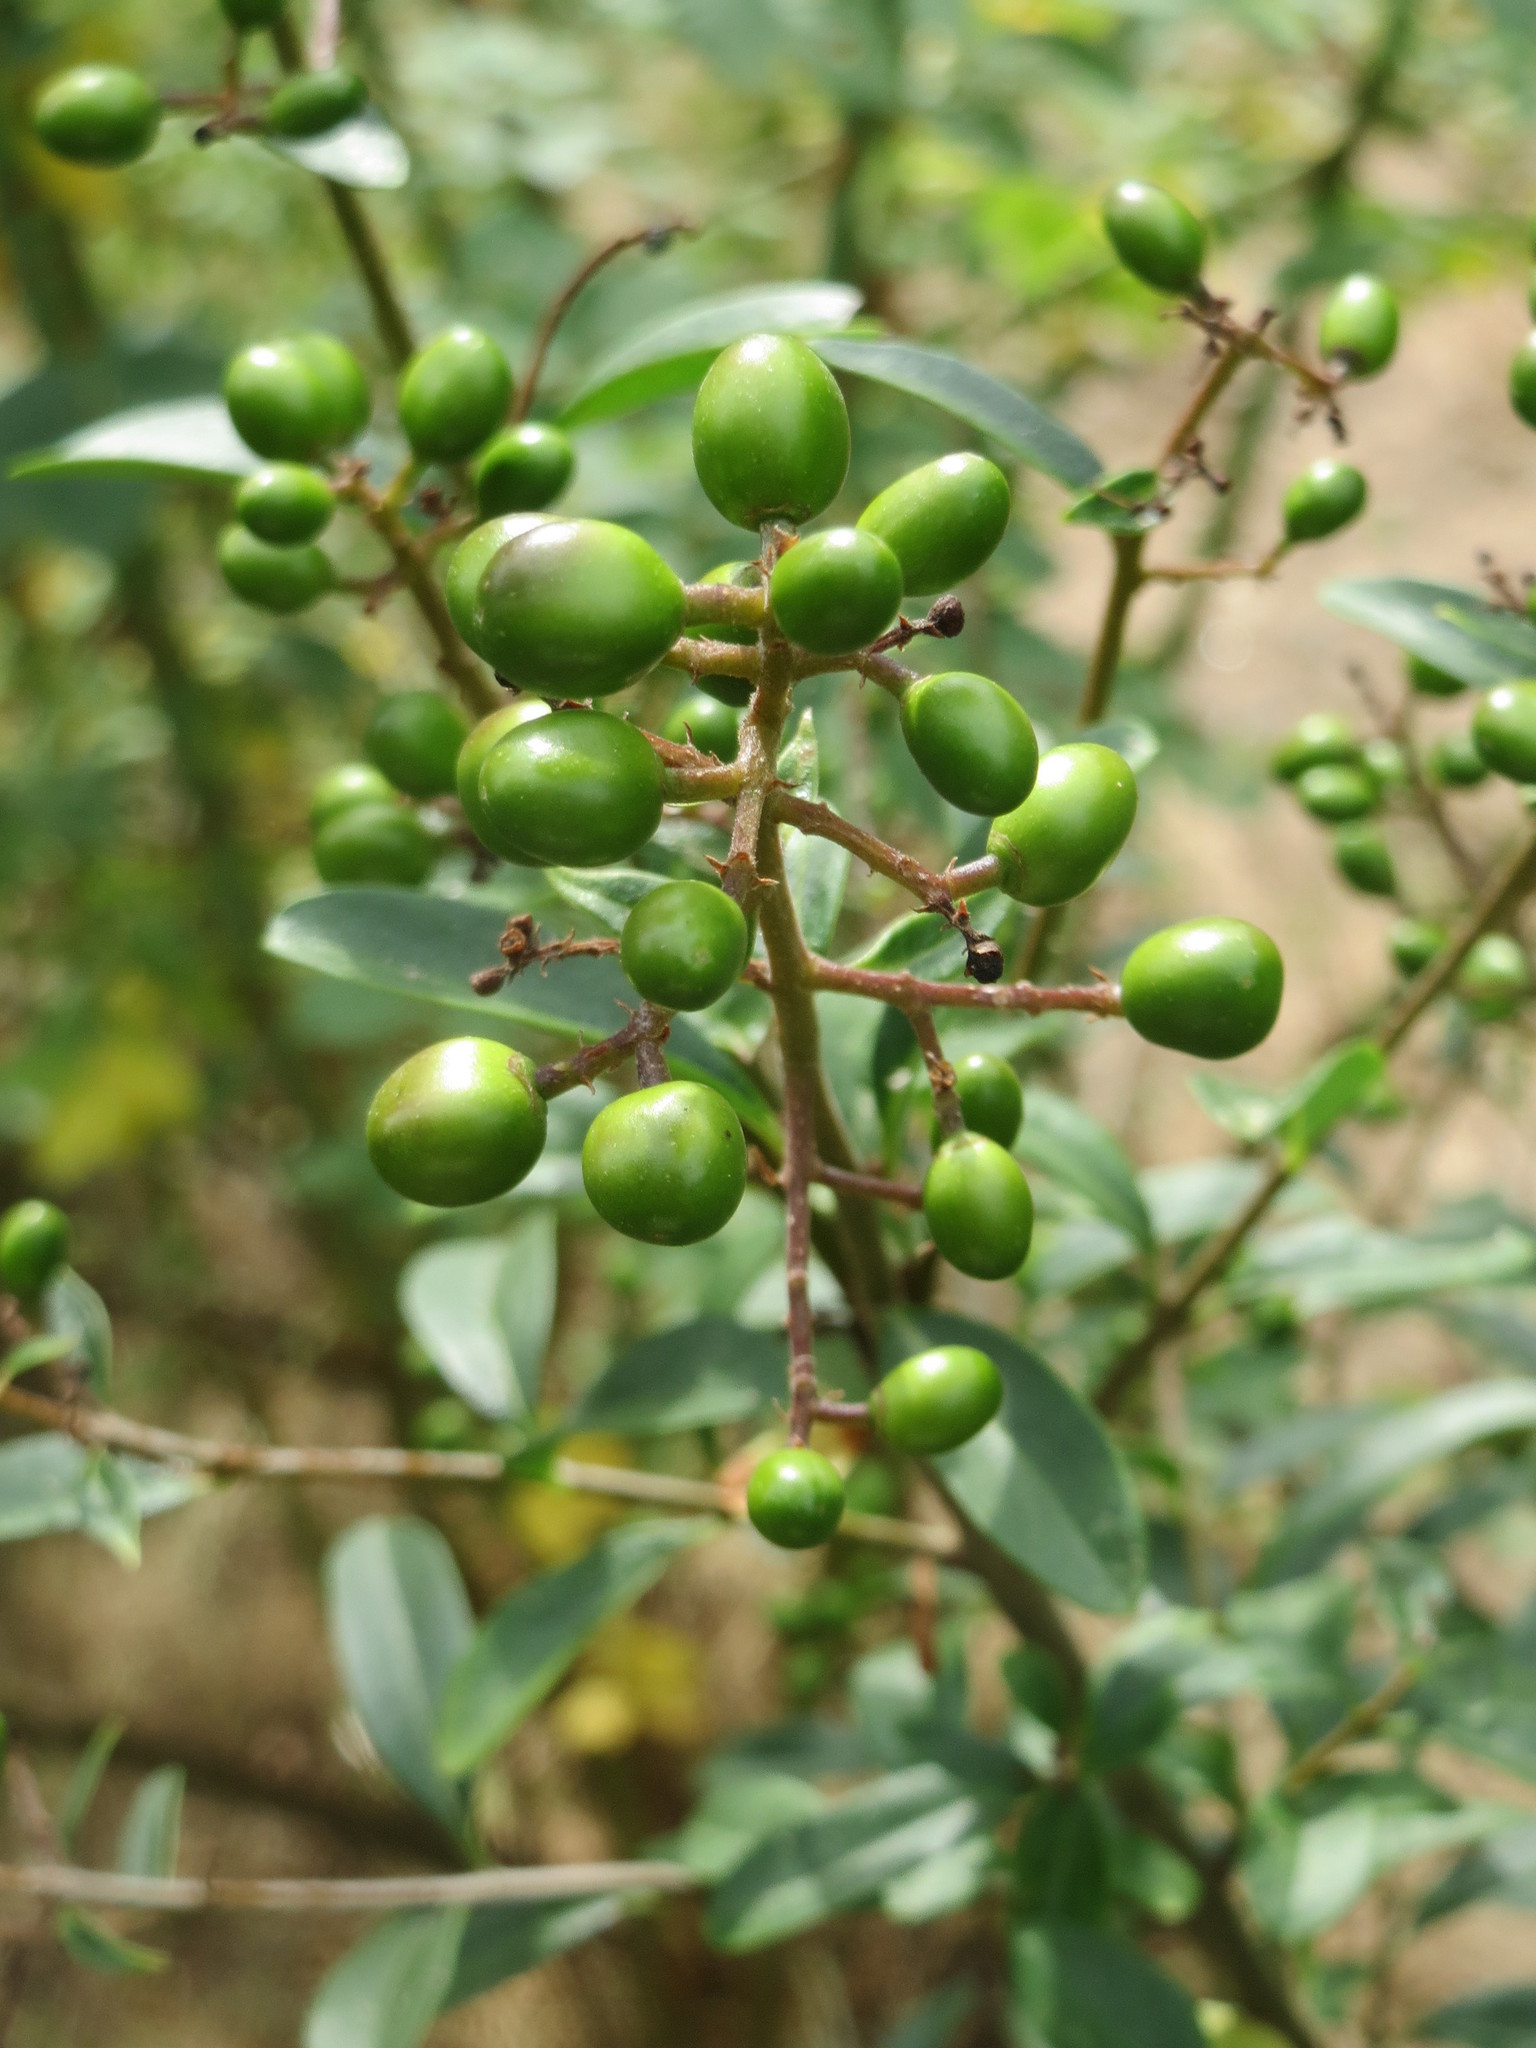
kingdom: Plantae
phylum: Tracheophyta
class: Magnoliopsida
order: Lamiales
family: Oleaceae
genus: Ligustrum
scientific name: Ligustrum vulgare
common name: Wild privet
